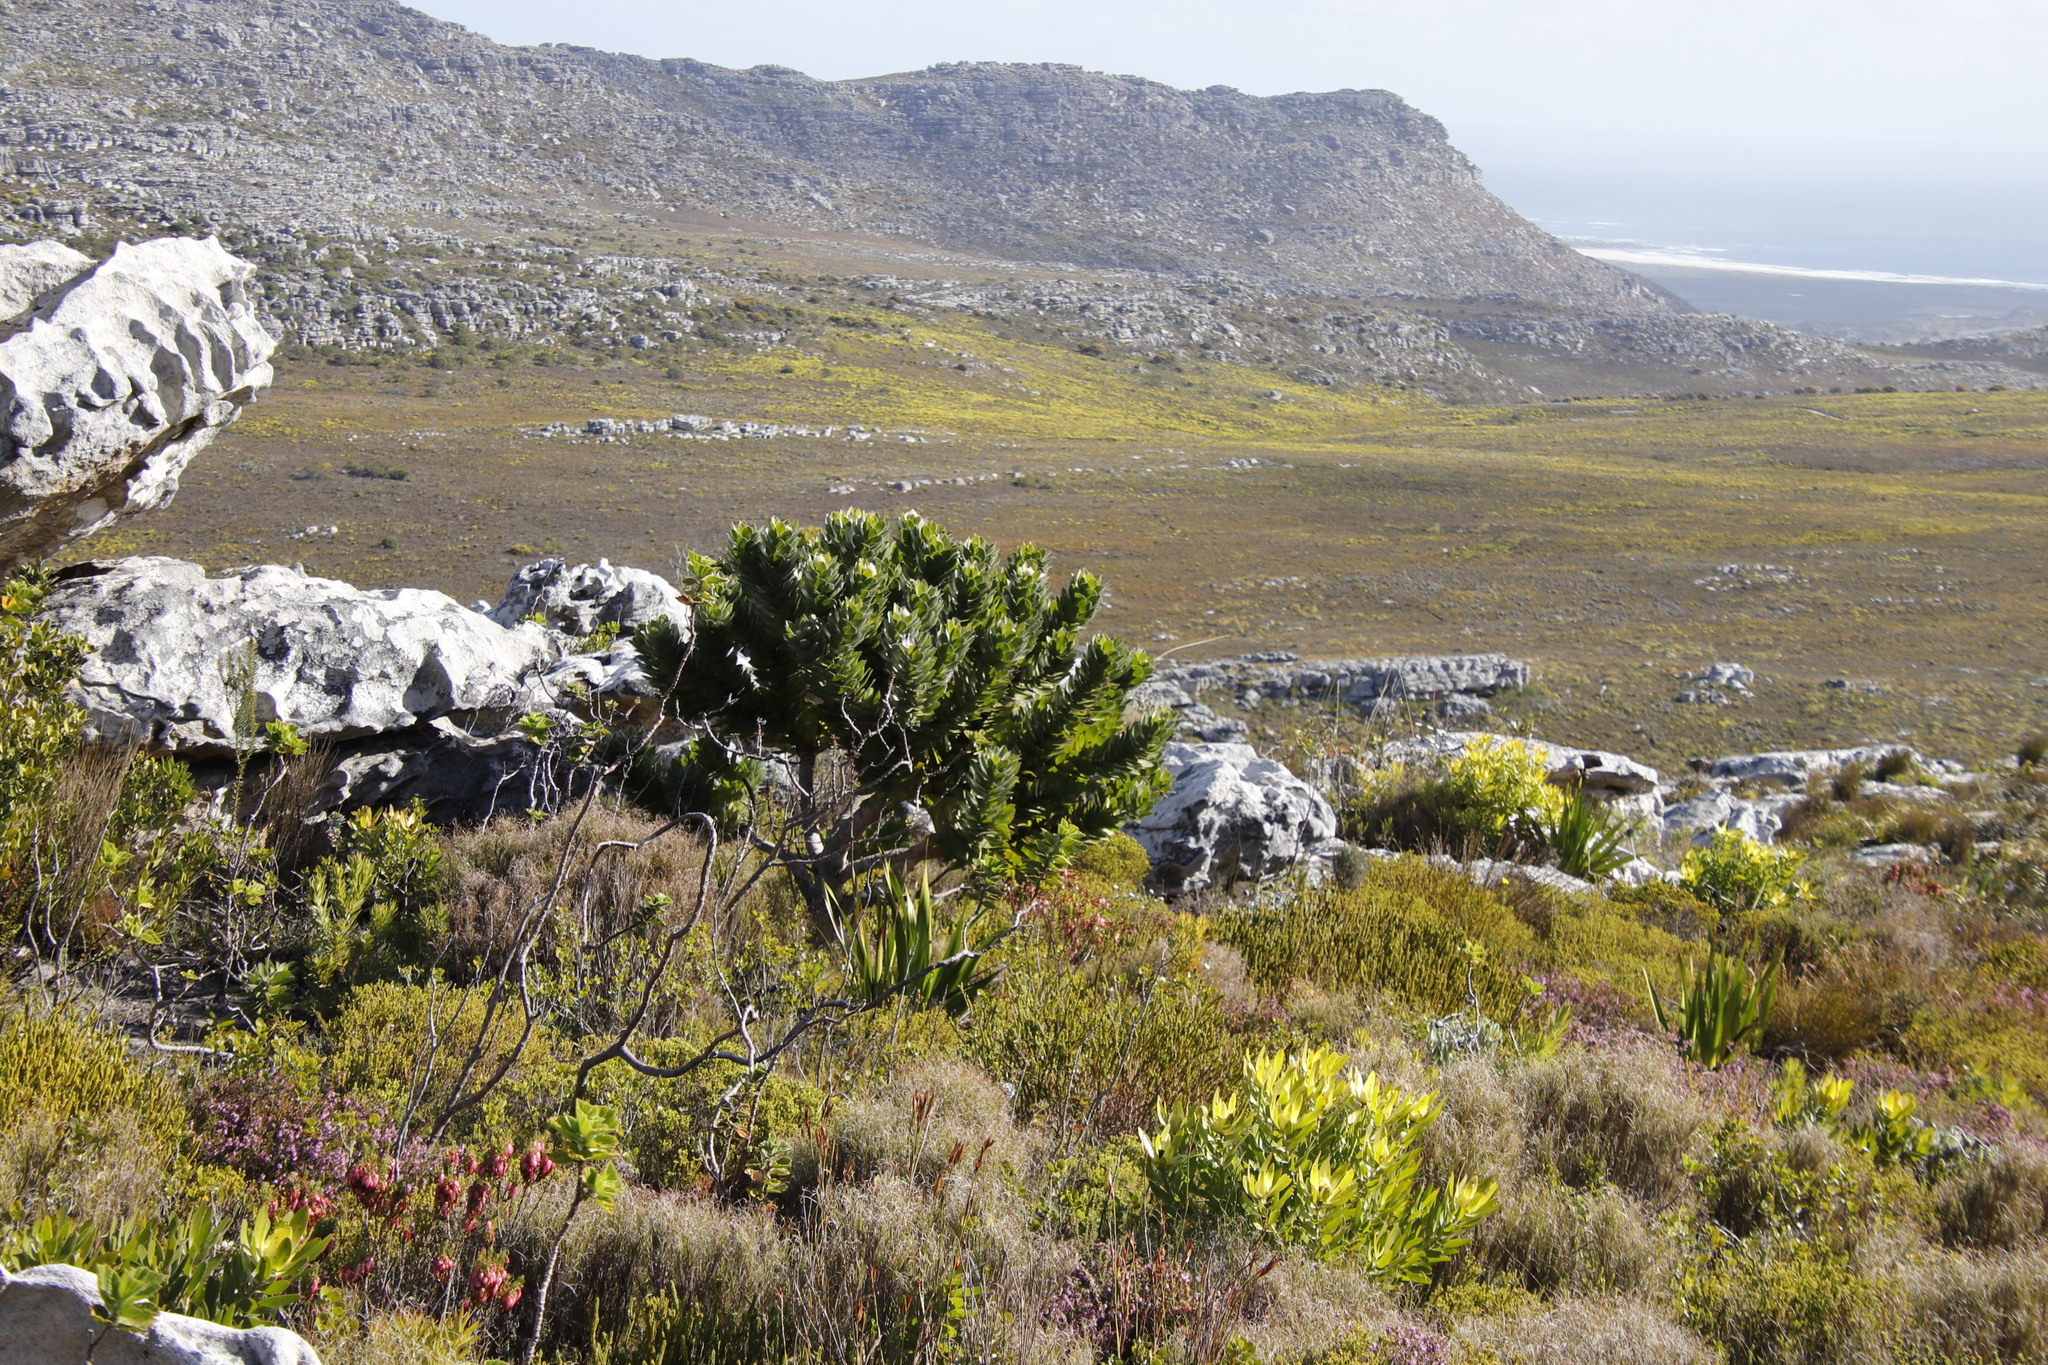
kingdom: Plantae
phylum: Tracheophyta
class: Magnoliopsida
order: Proteales
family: Proteaceae
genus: Leucospermum
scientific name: Leucospermum conocarpodendron
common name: Tree pincushion
